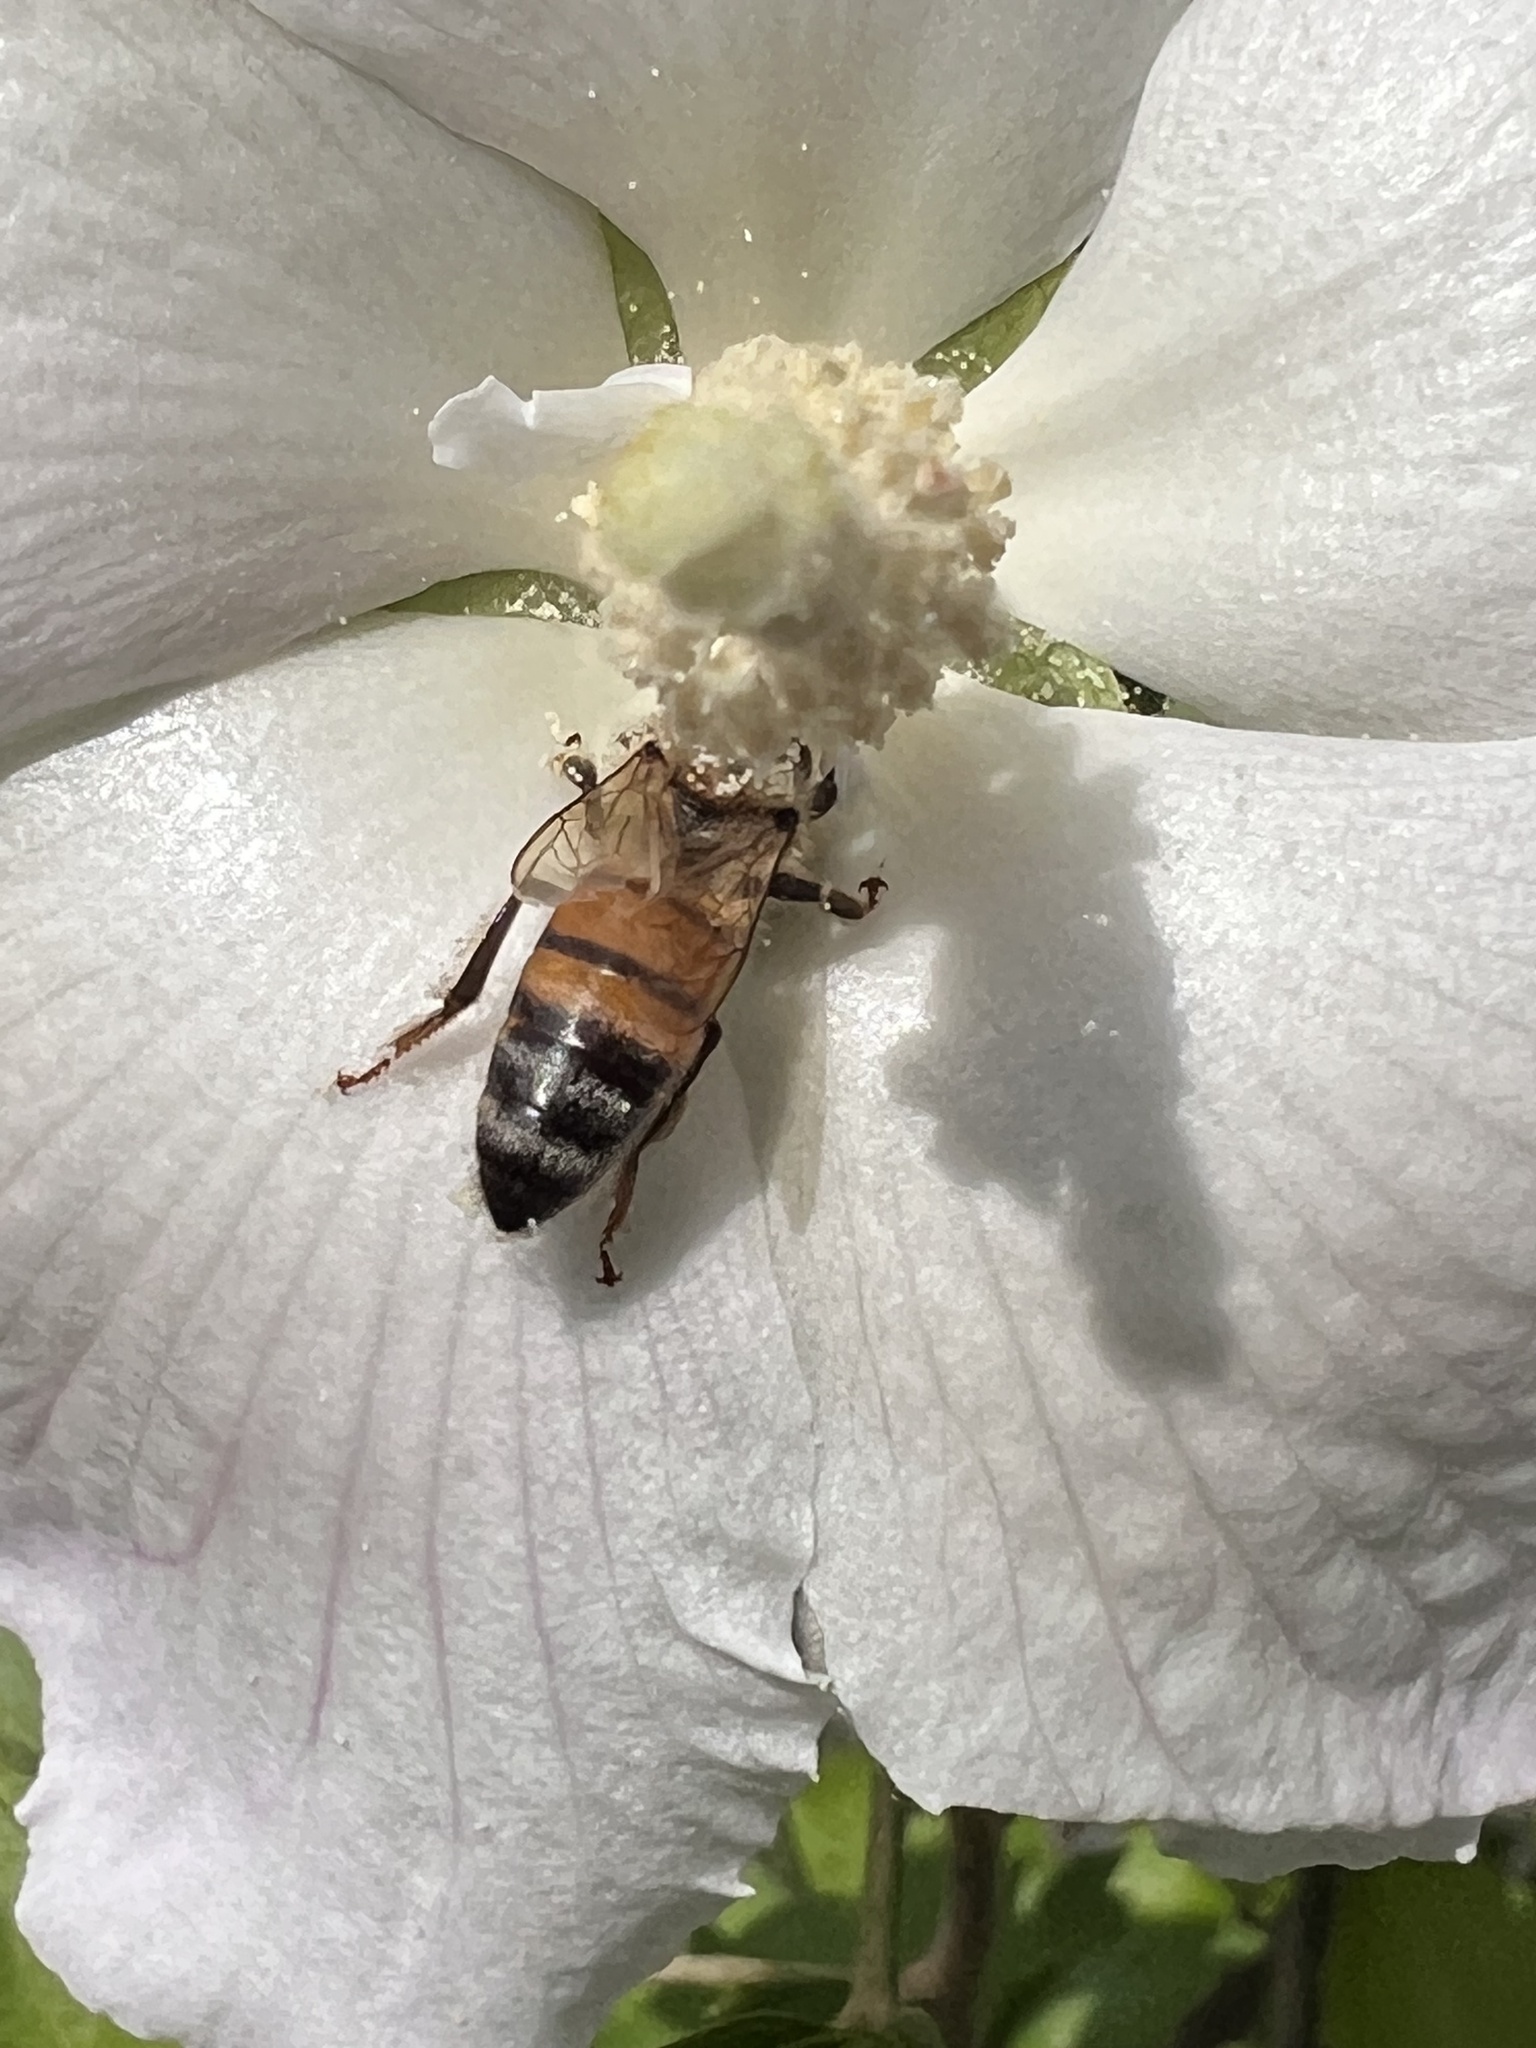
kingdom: Animalia
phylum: Arthropoda
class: Insecta
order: Hymenoptera
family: Apidae
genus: Apis
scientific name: Apis mellifera
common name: Honey bee
